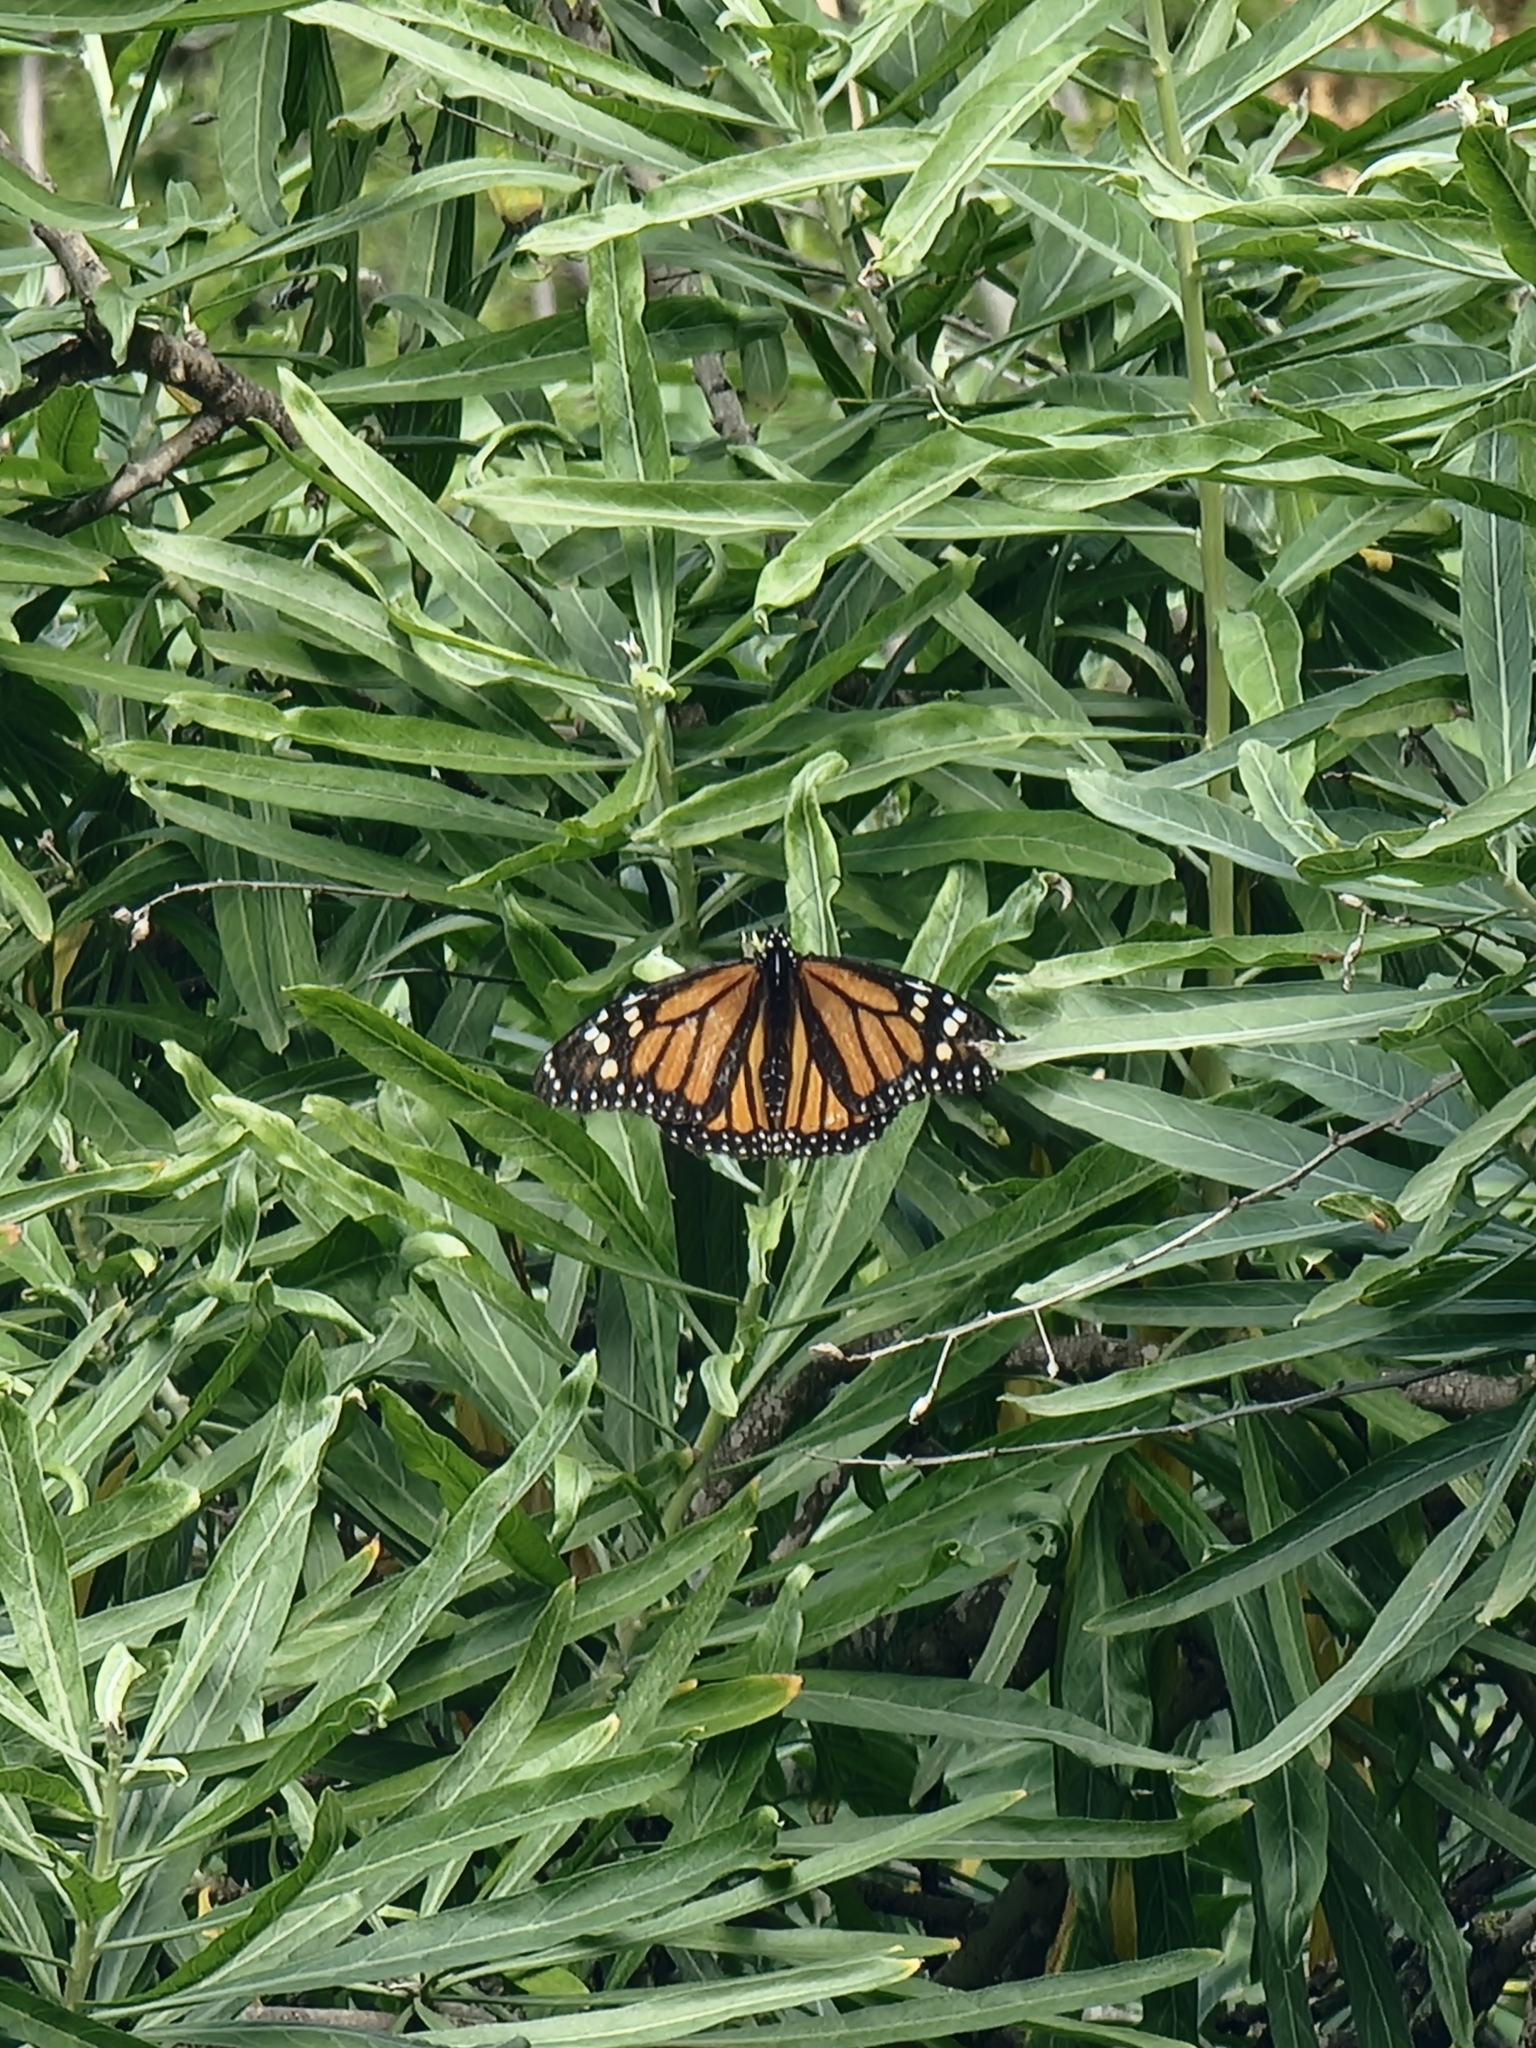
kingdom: Animalia
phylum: Arthropoda
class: Insecta
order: Lepidoptera
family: Nymphalidae
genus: Danaus
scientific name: Danaus plexippus
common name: Monarch
